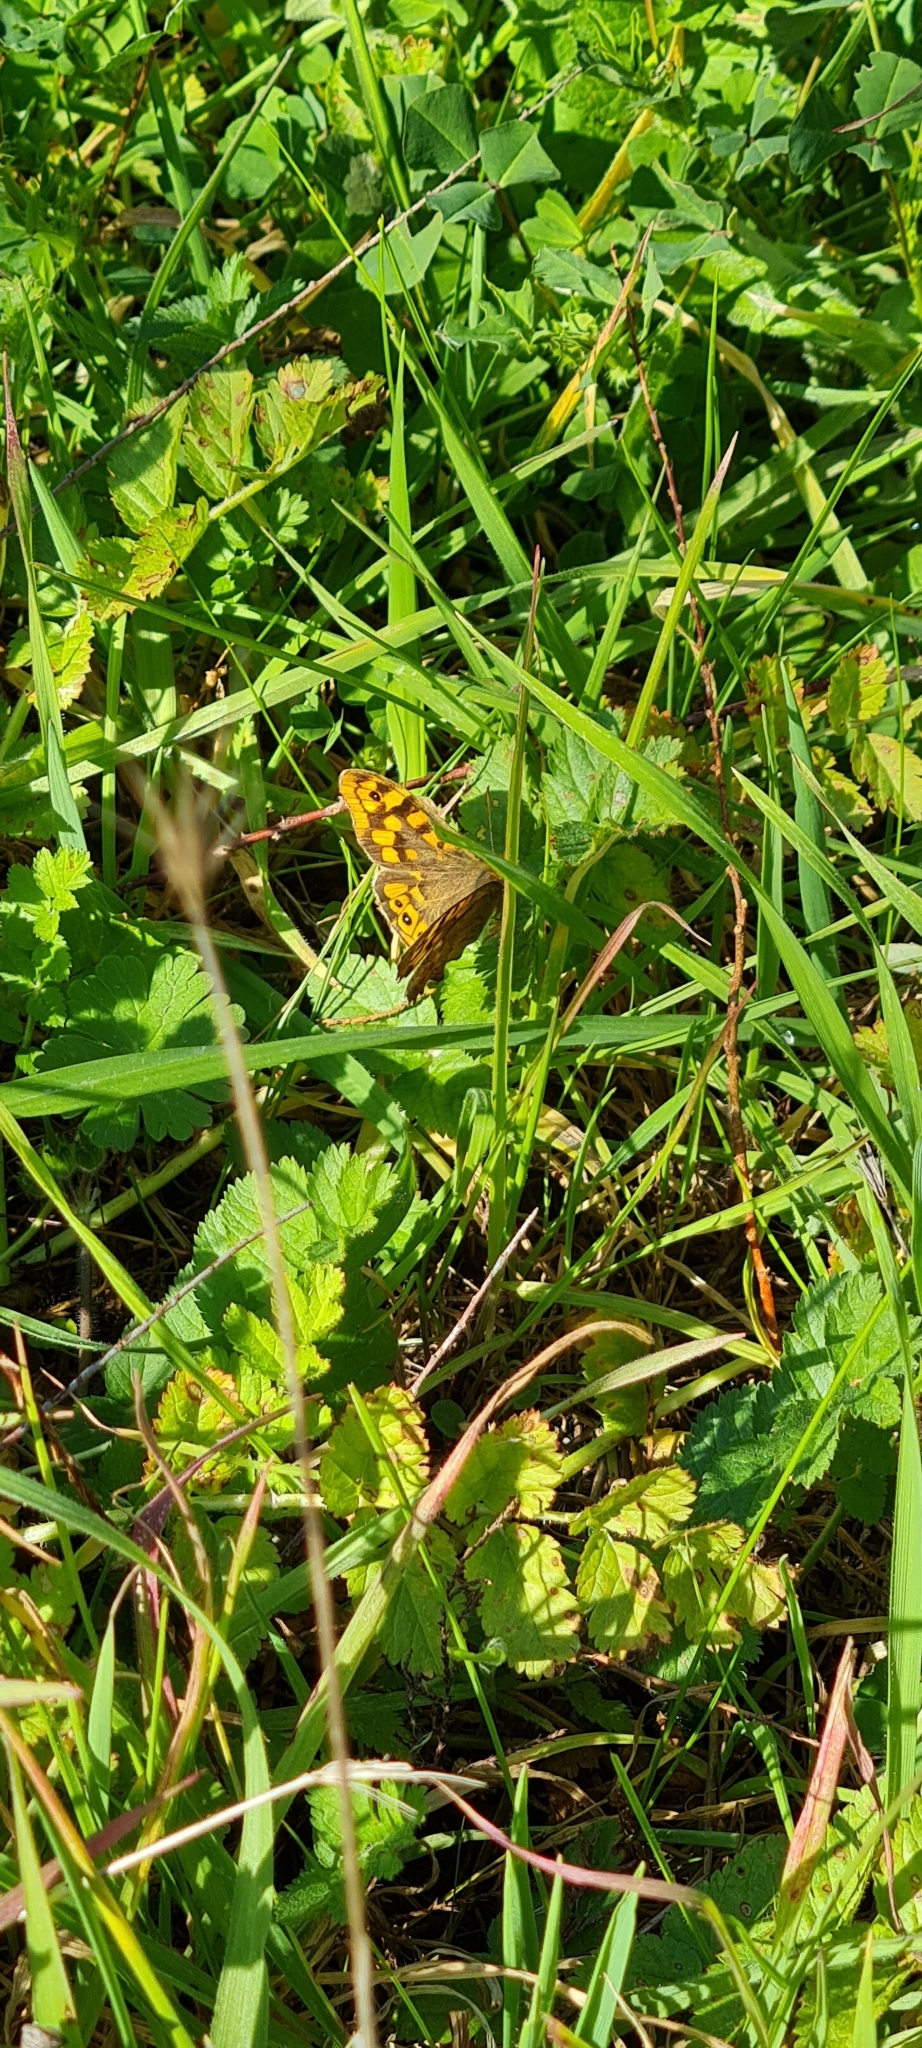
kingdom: Animalia
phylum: Arthropoda
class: Insecta
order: Lepidoptera
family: Nymphalidae
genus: Pararge
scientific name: Pararge aegeria
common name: Speckled wood
